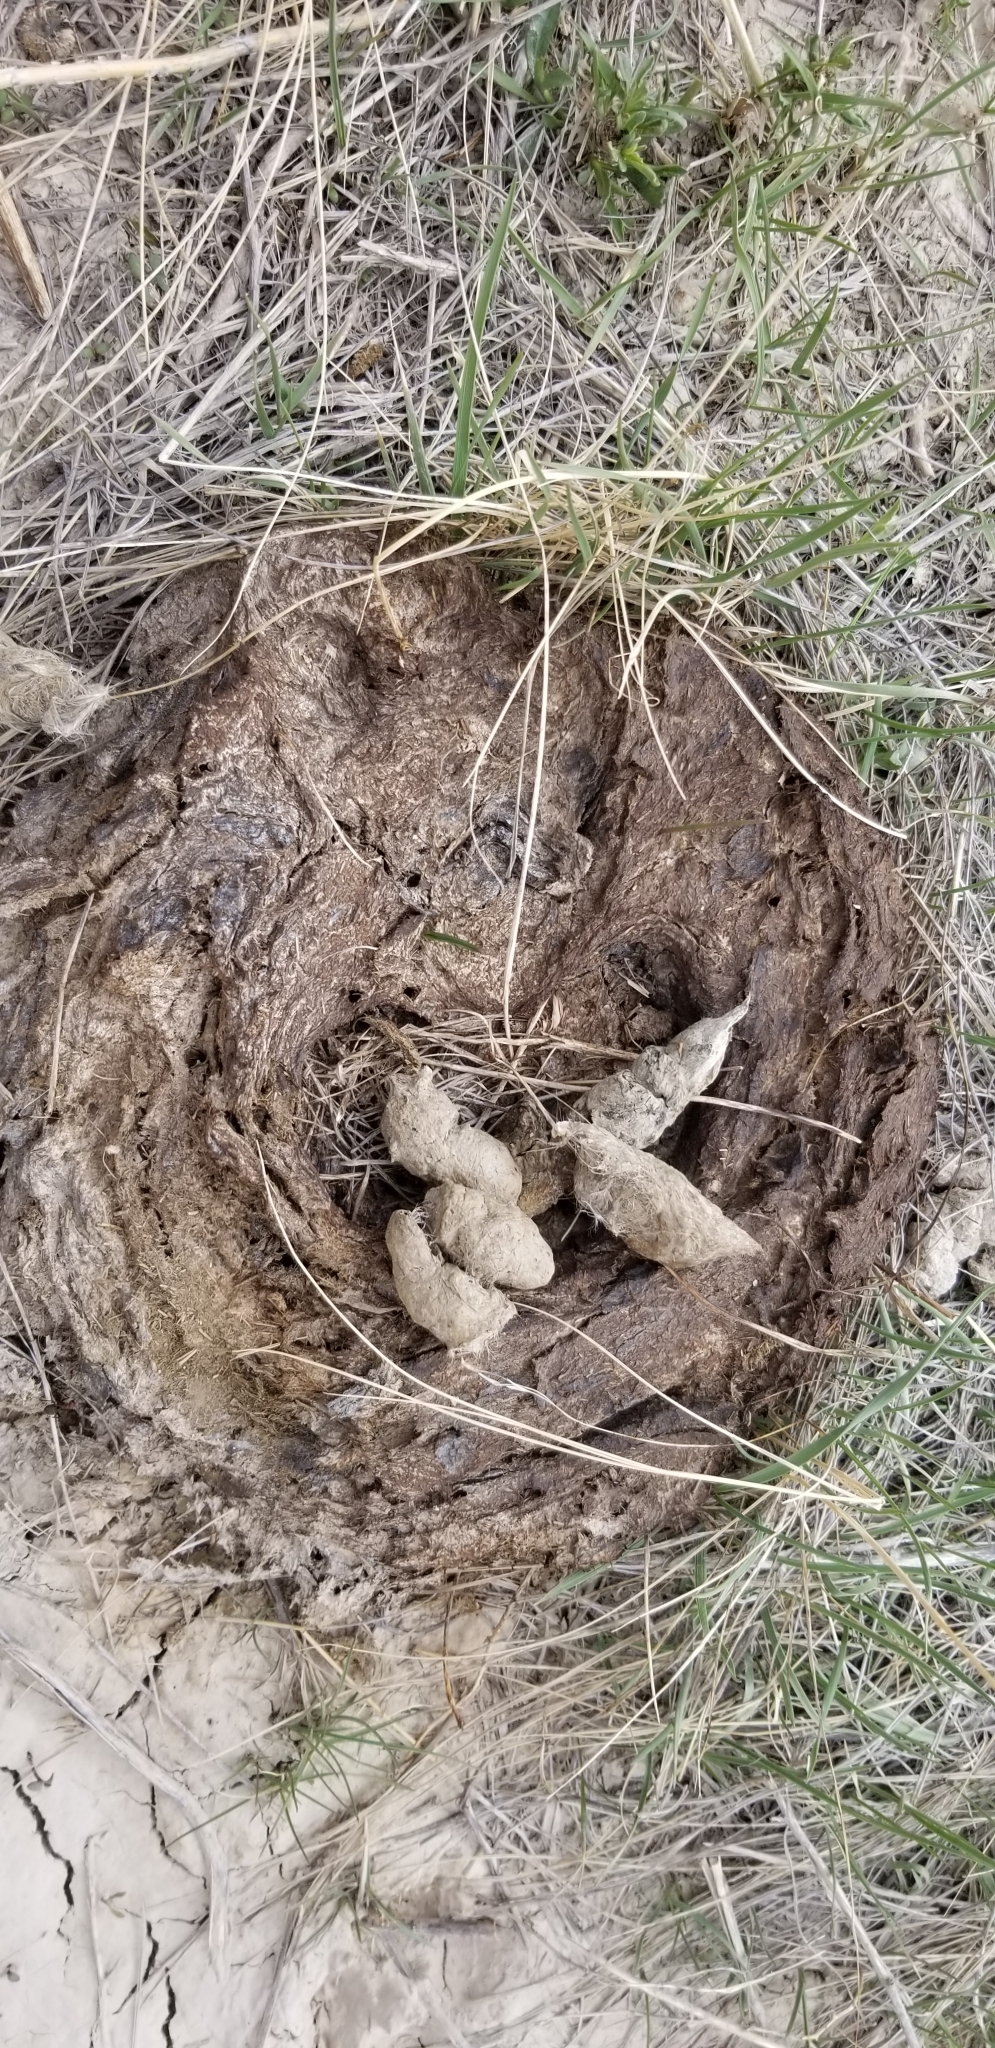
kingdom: Animalia
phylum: Chordata
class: Mammalia
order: Artiodactyla
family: Bovidae
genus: Bison
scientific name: Bison bison
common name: American bison
